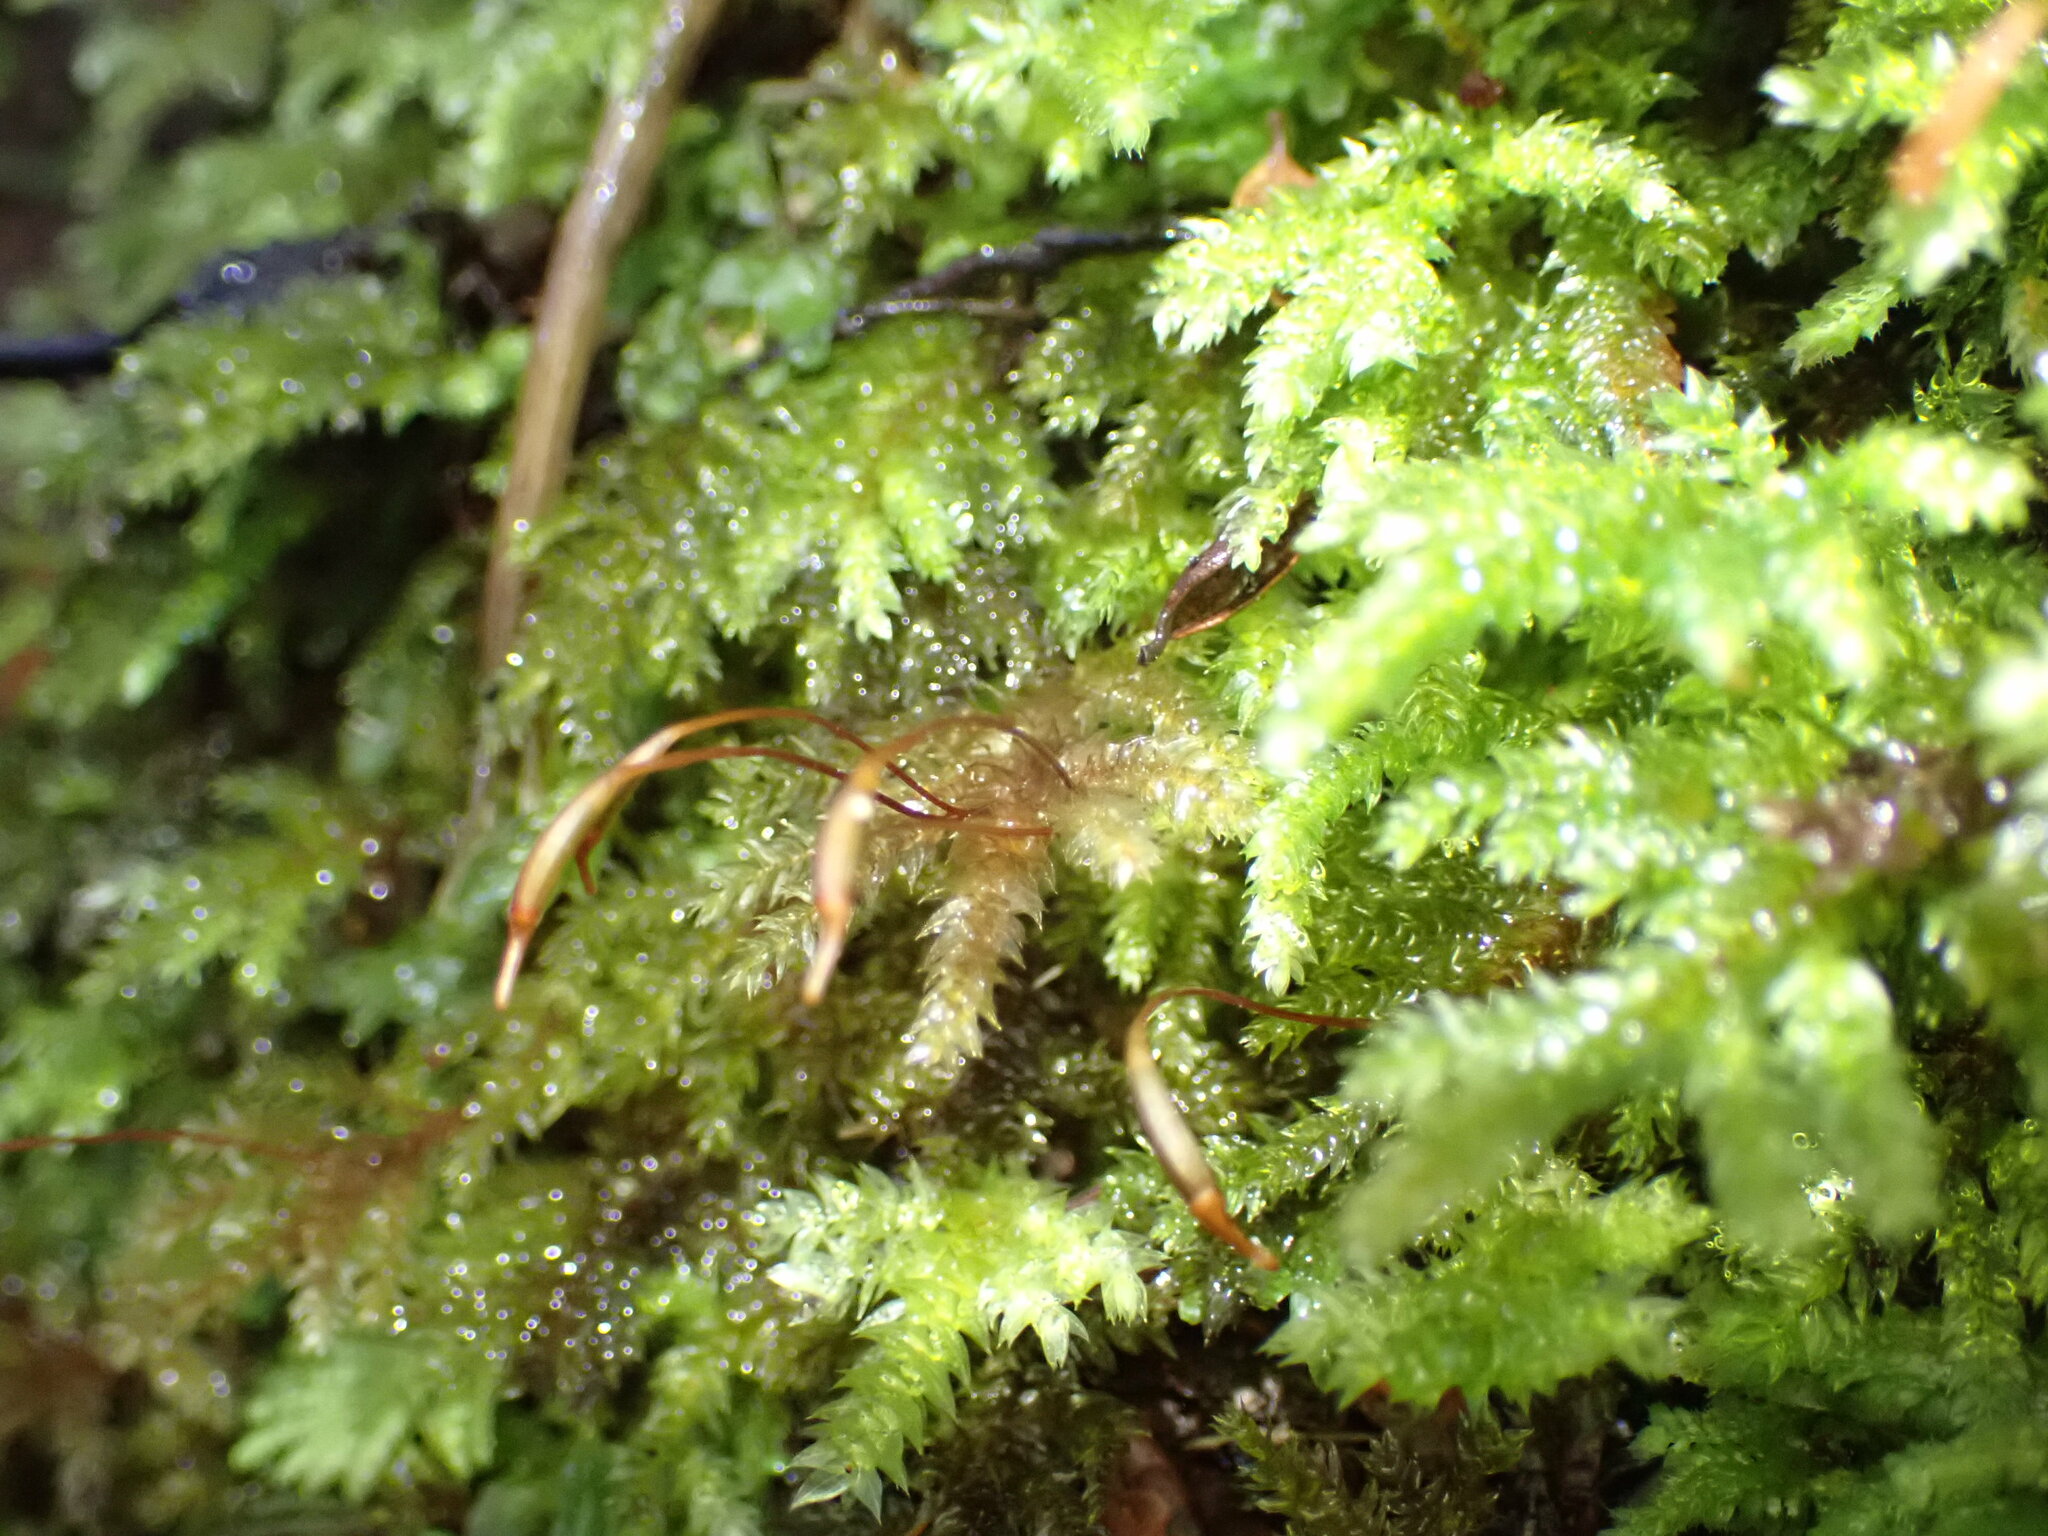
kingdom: Plantae
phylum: Bryophyta
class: Bryopsida
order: Hypnodendrales
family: Spiridentaceae
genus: Hypnodendron
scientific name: Hypnodendron arcuatum
